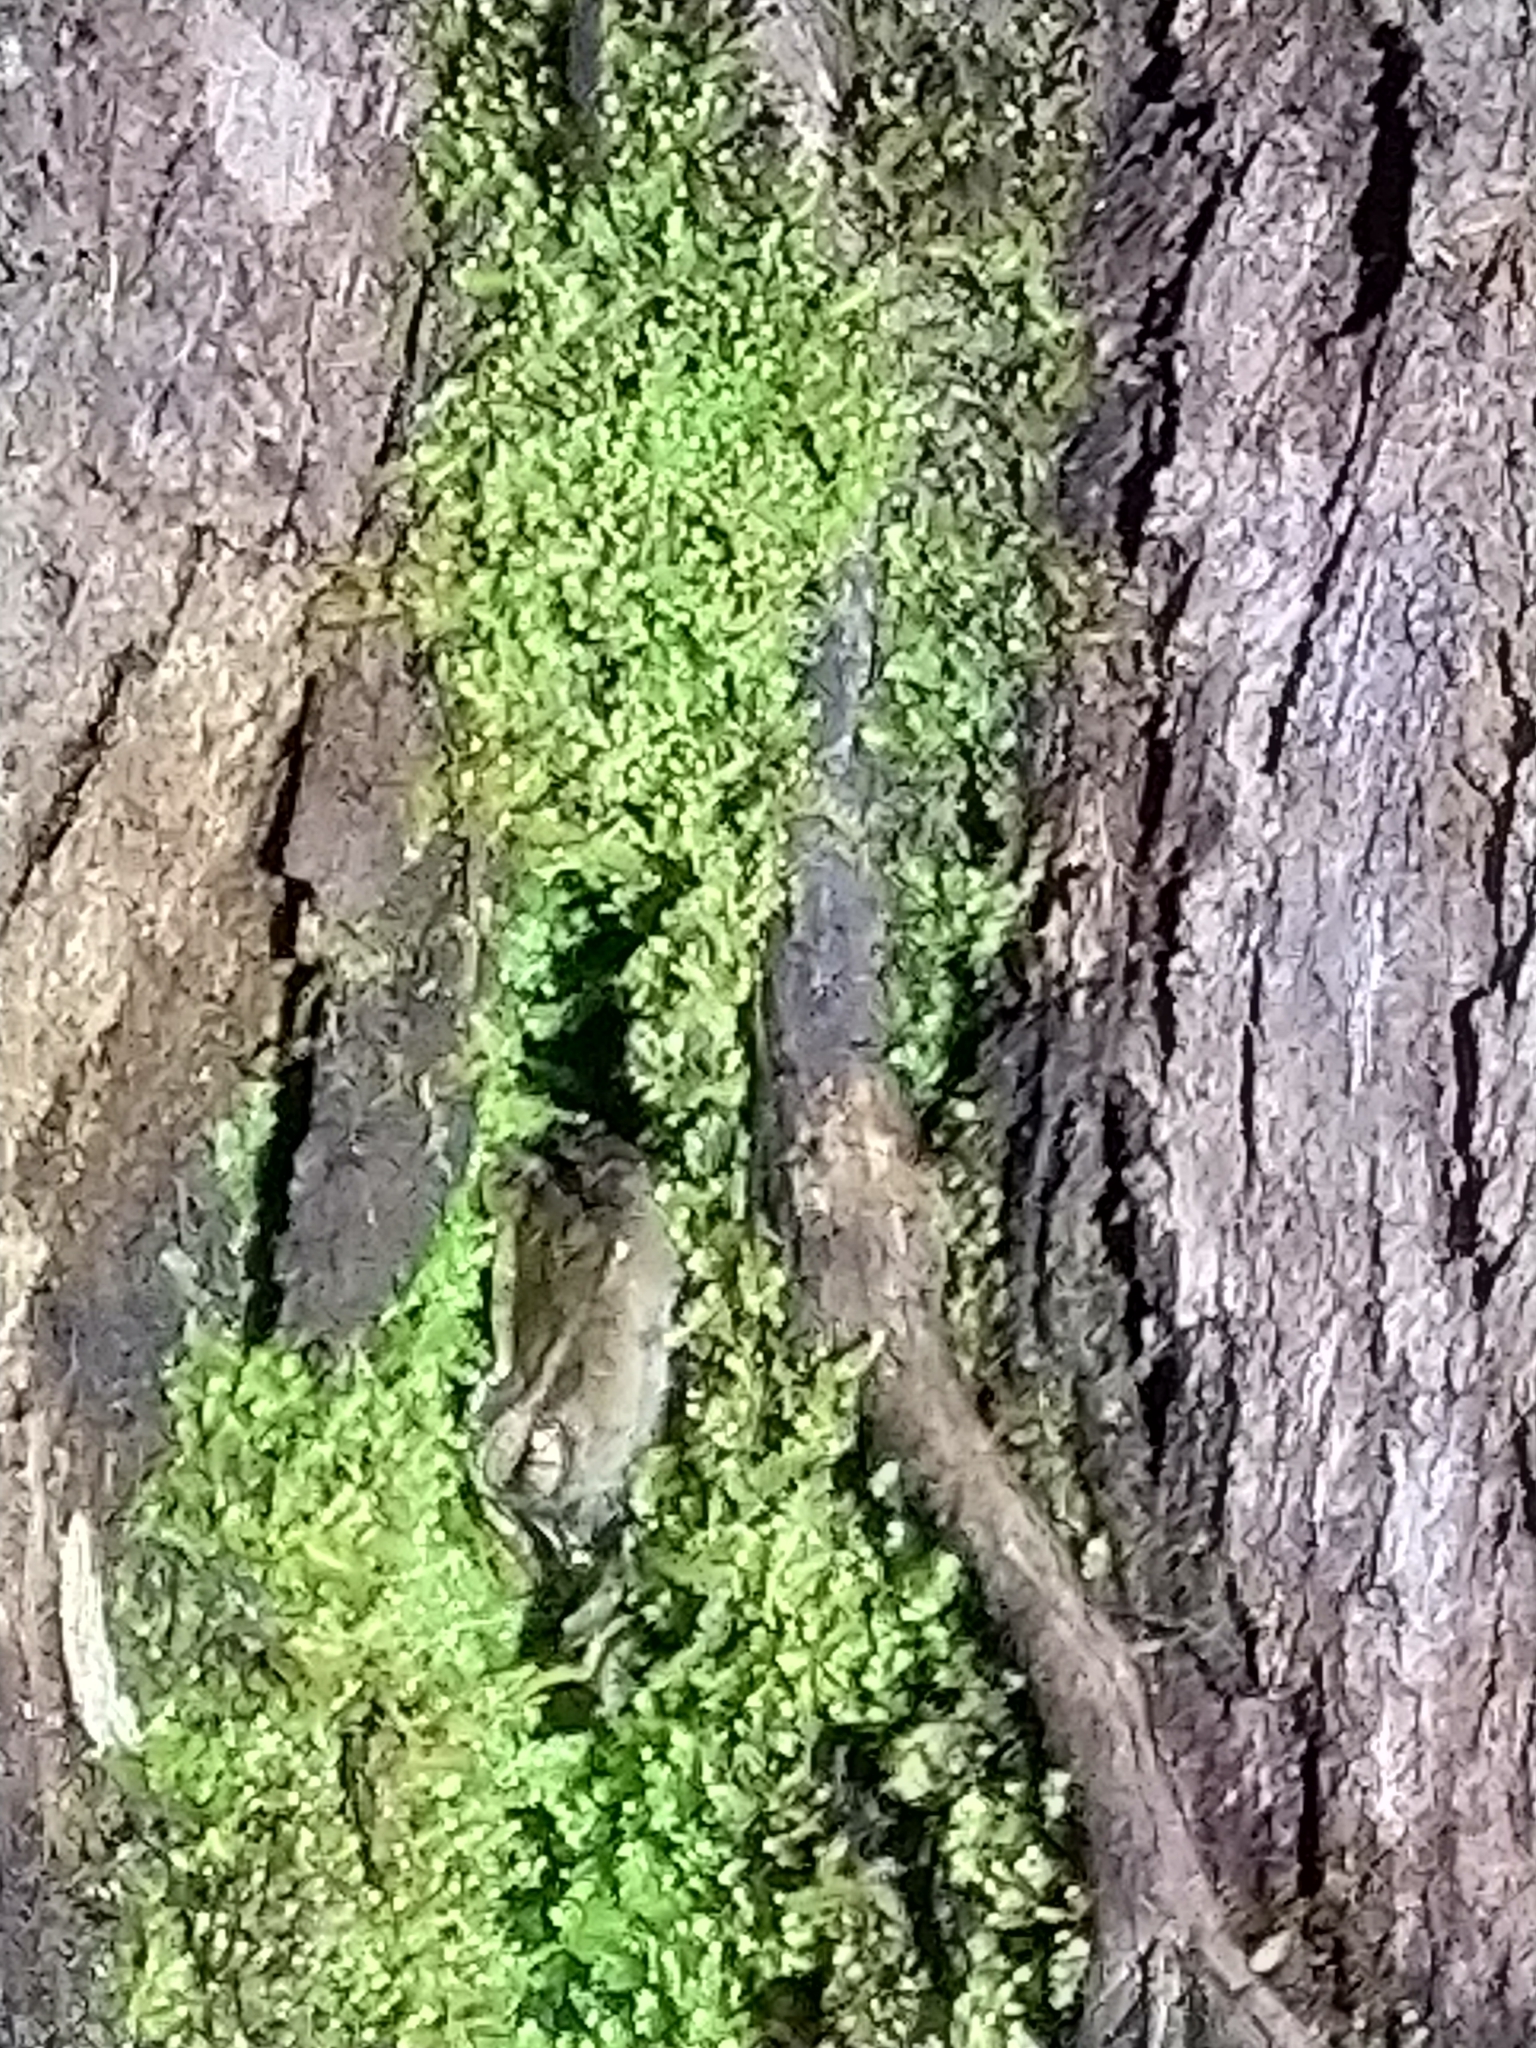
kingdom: Animalia
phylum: Chordata
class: Amphibia
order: Anura
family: Eleutherodactylidae
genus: Eleutherodactylus
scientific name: Eleutherodactylus coqui
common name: Coqui frog
